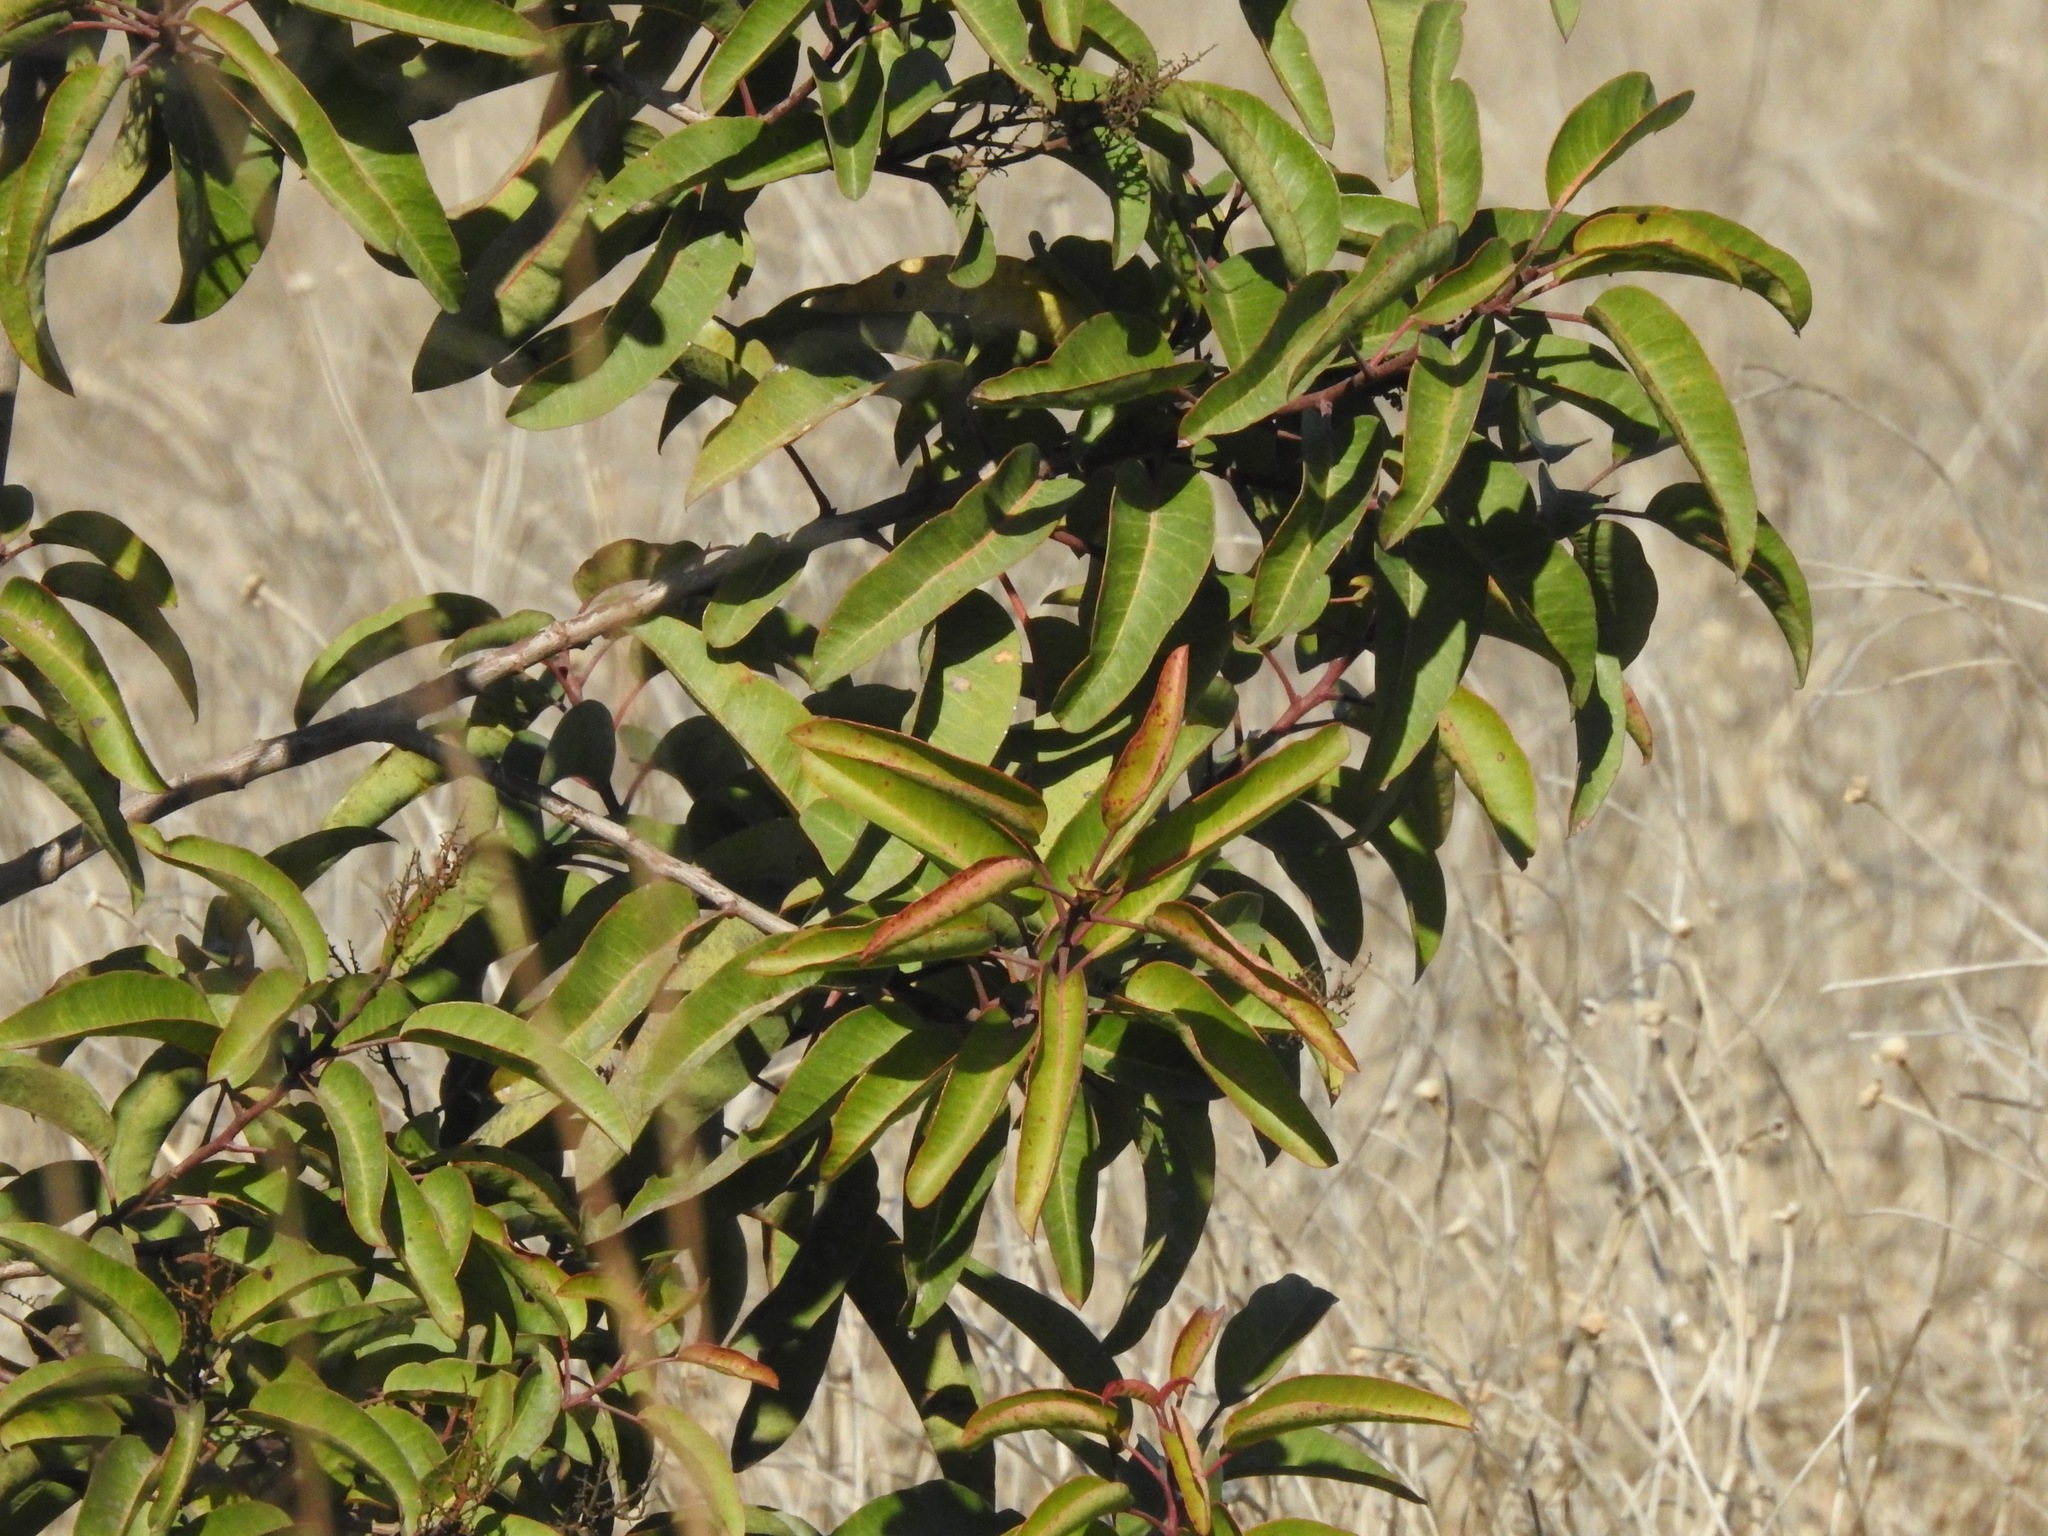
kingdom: Plantae
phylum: Tracheophyta
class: Magnoliopsida
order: Sapindales
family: Anacardiaceae
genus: Malosma
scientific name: Malosma laurina
